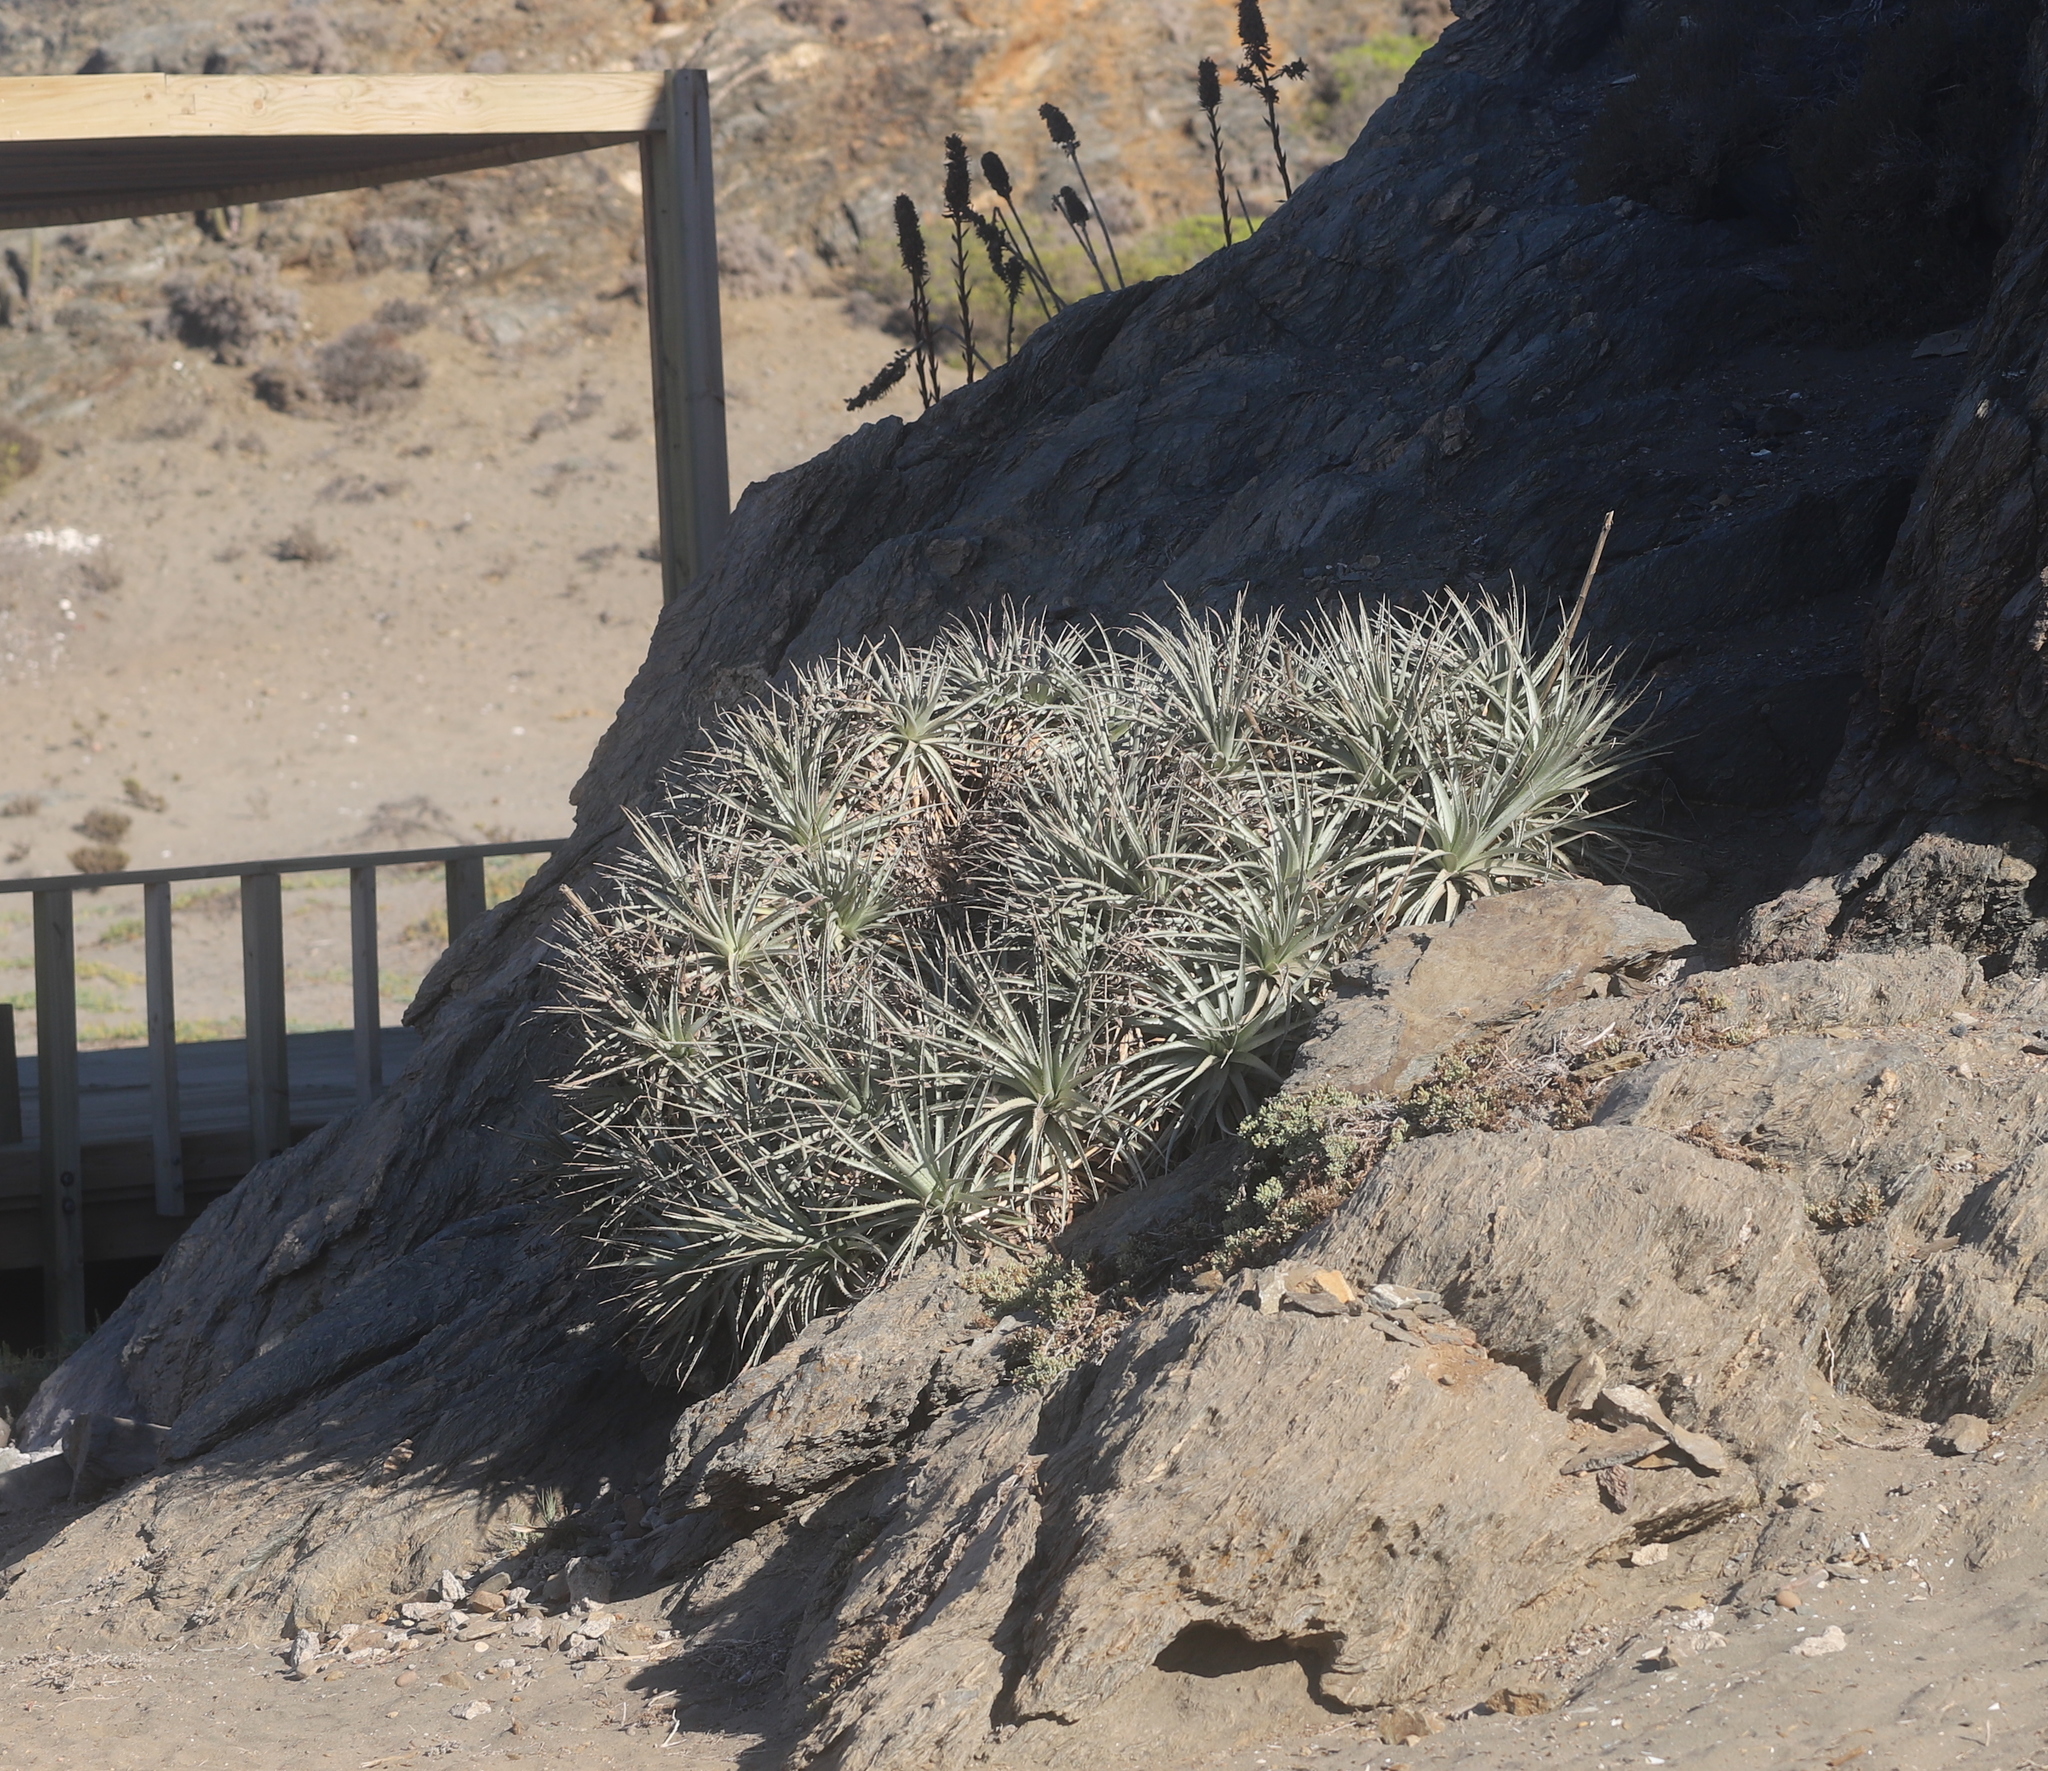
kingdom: Plantae
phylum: Tracheophyta
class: Liliopsida
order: Poales
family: Bromeliaceae
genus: Puya
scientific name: Puya venusta
